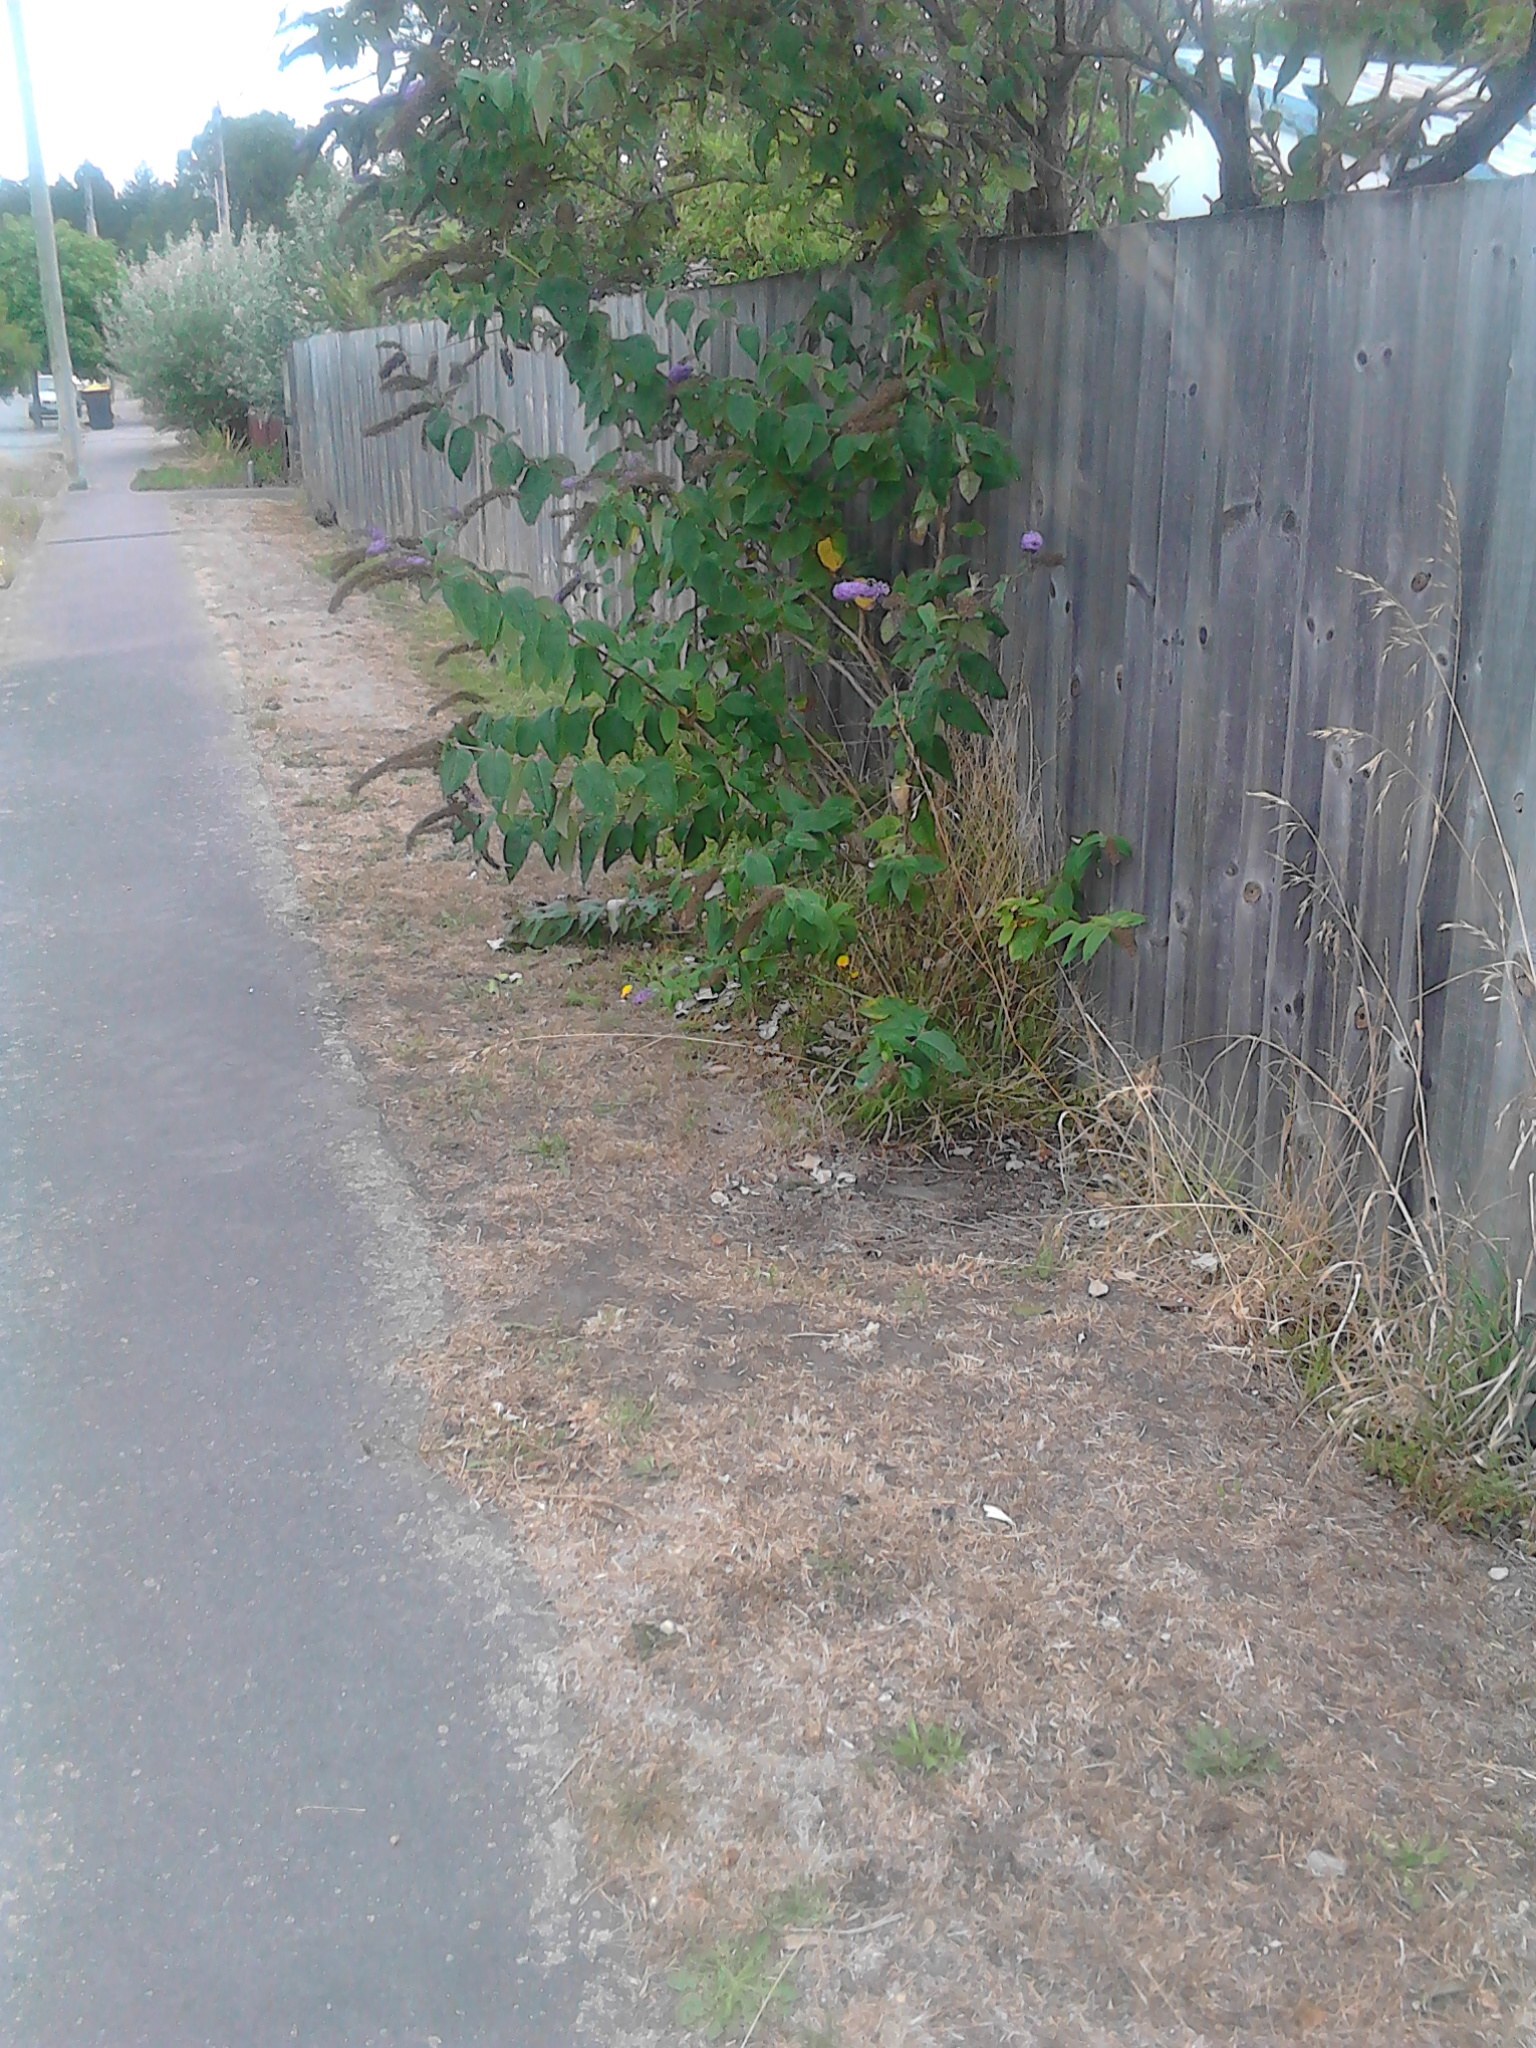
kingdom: Plantae
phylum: Tracheophyta
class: Magnoliopsida
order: Lamiales
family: Scrophulariaceae
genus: Buddleja
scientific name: Buddleja davidii
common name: Butterfly-bush
